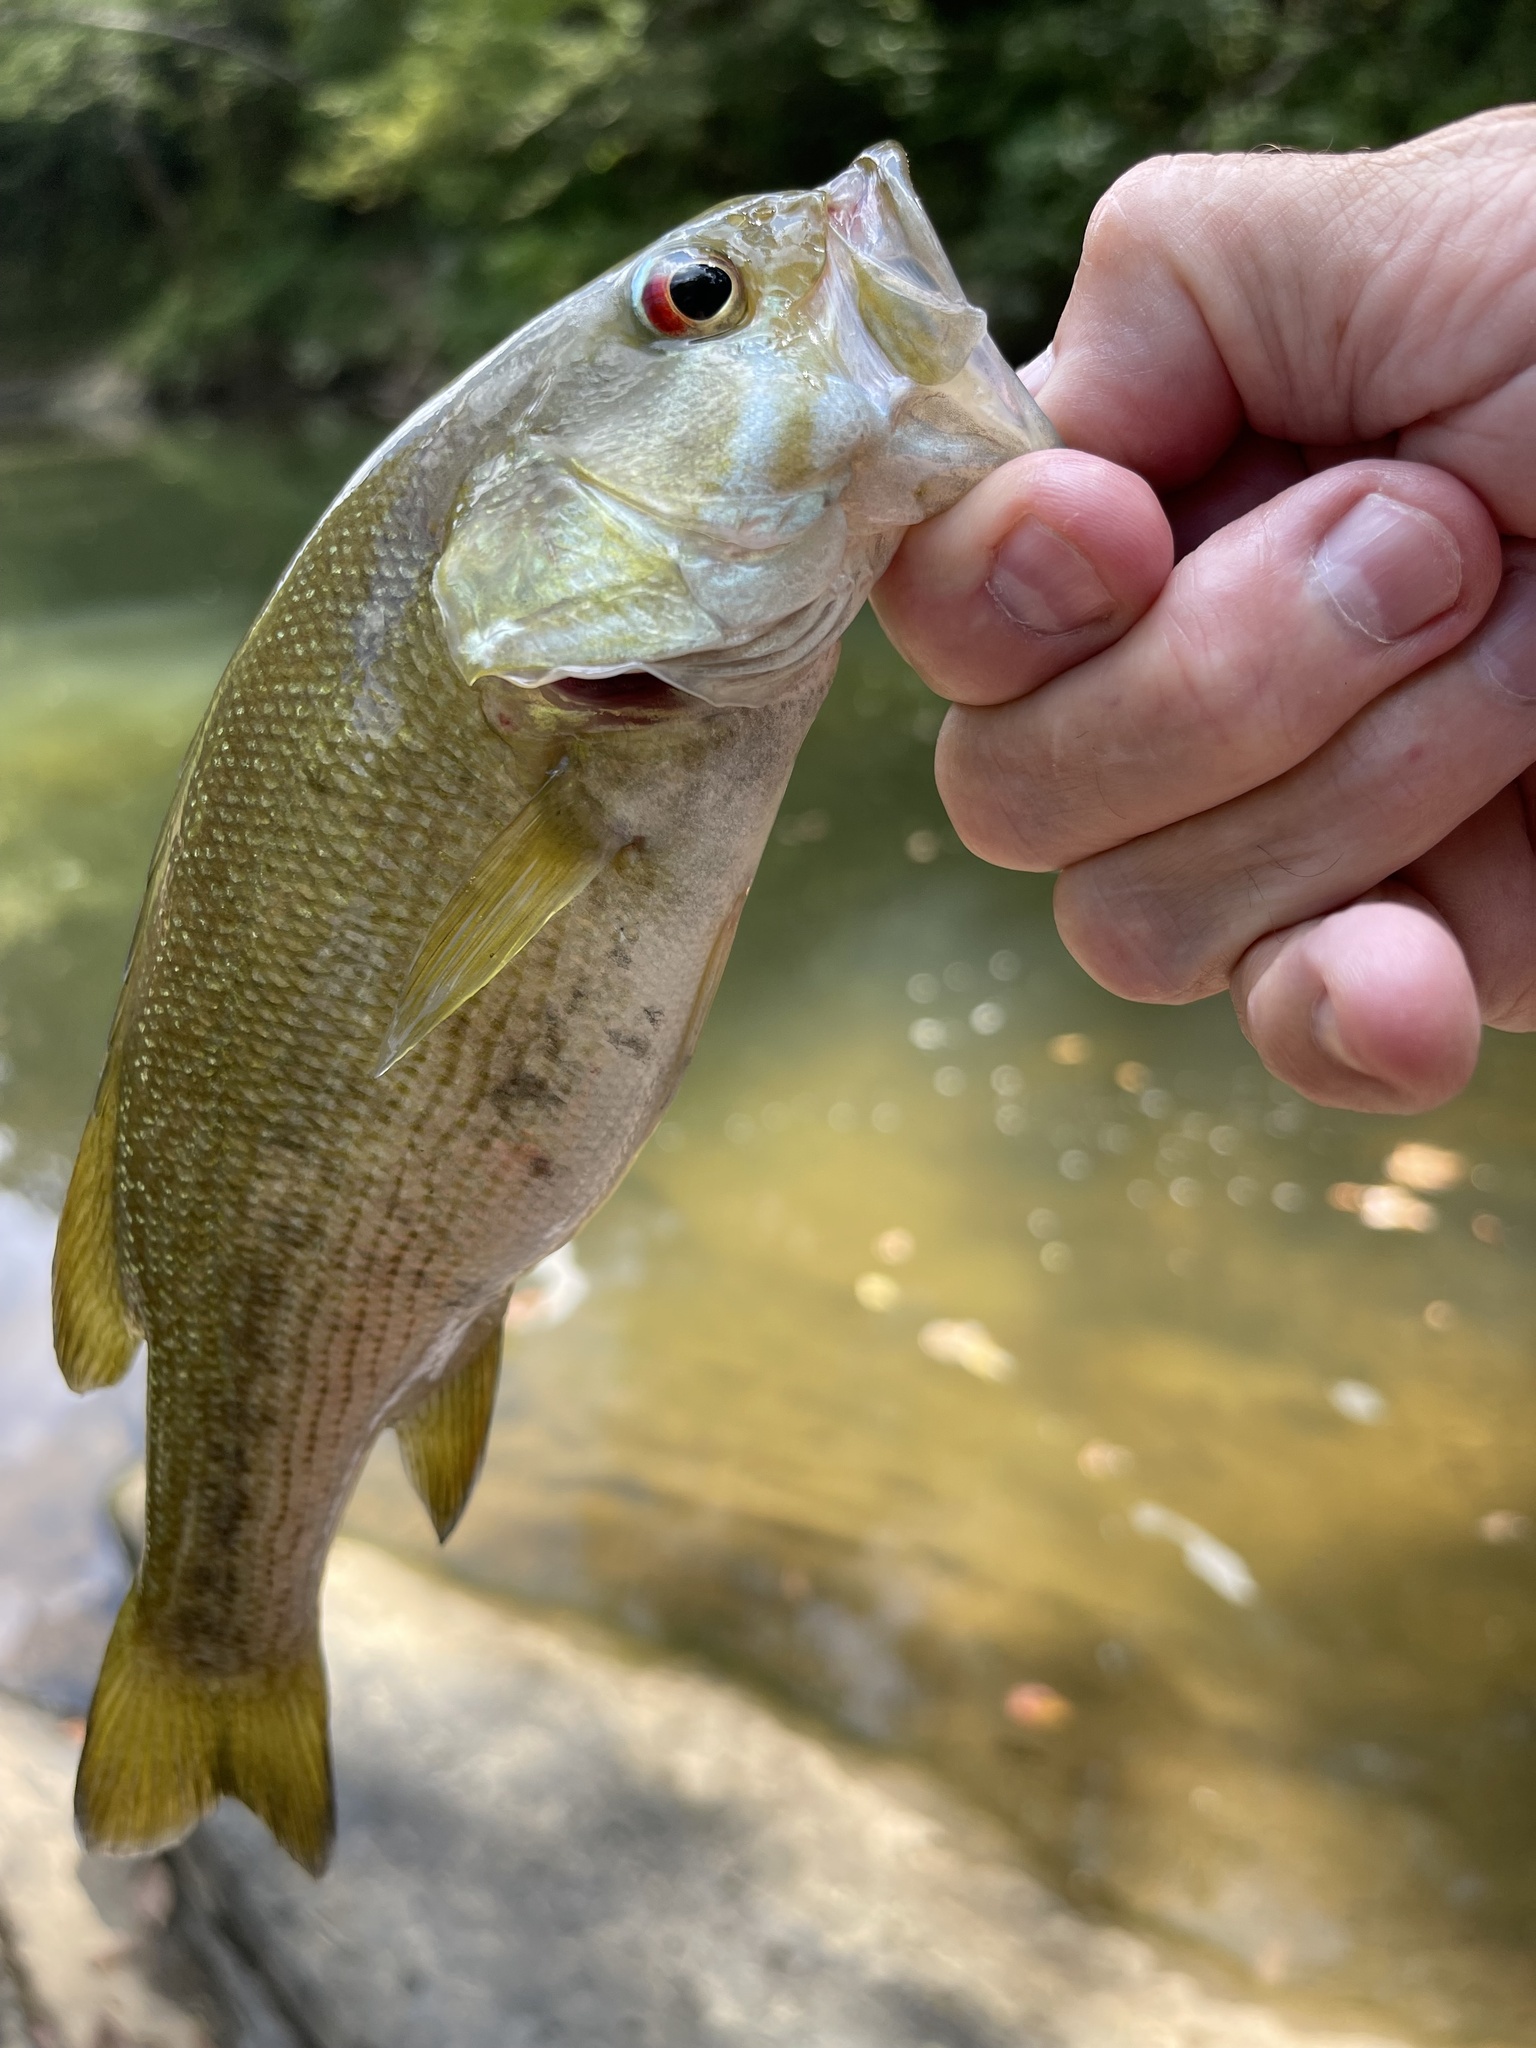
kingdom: Animalia
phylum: Chordata
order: Perciformes
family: Centrarchidae
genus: Micropterus
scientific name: Micropterus cahabae
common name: Cahaba bass
